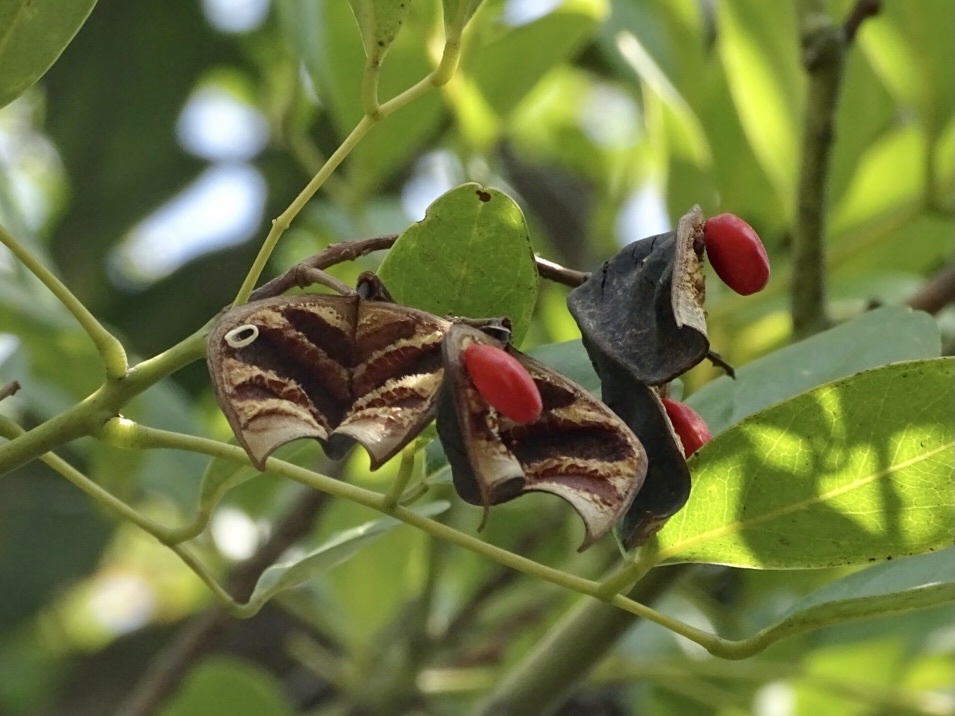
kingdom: Plantae
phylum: Tracheophyta
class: Magnoliopsida
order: Fabales
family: Fabaceae
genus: Ormosia
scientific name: Ormosia emarginata
